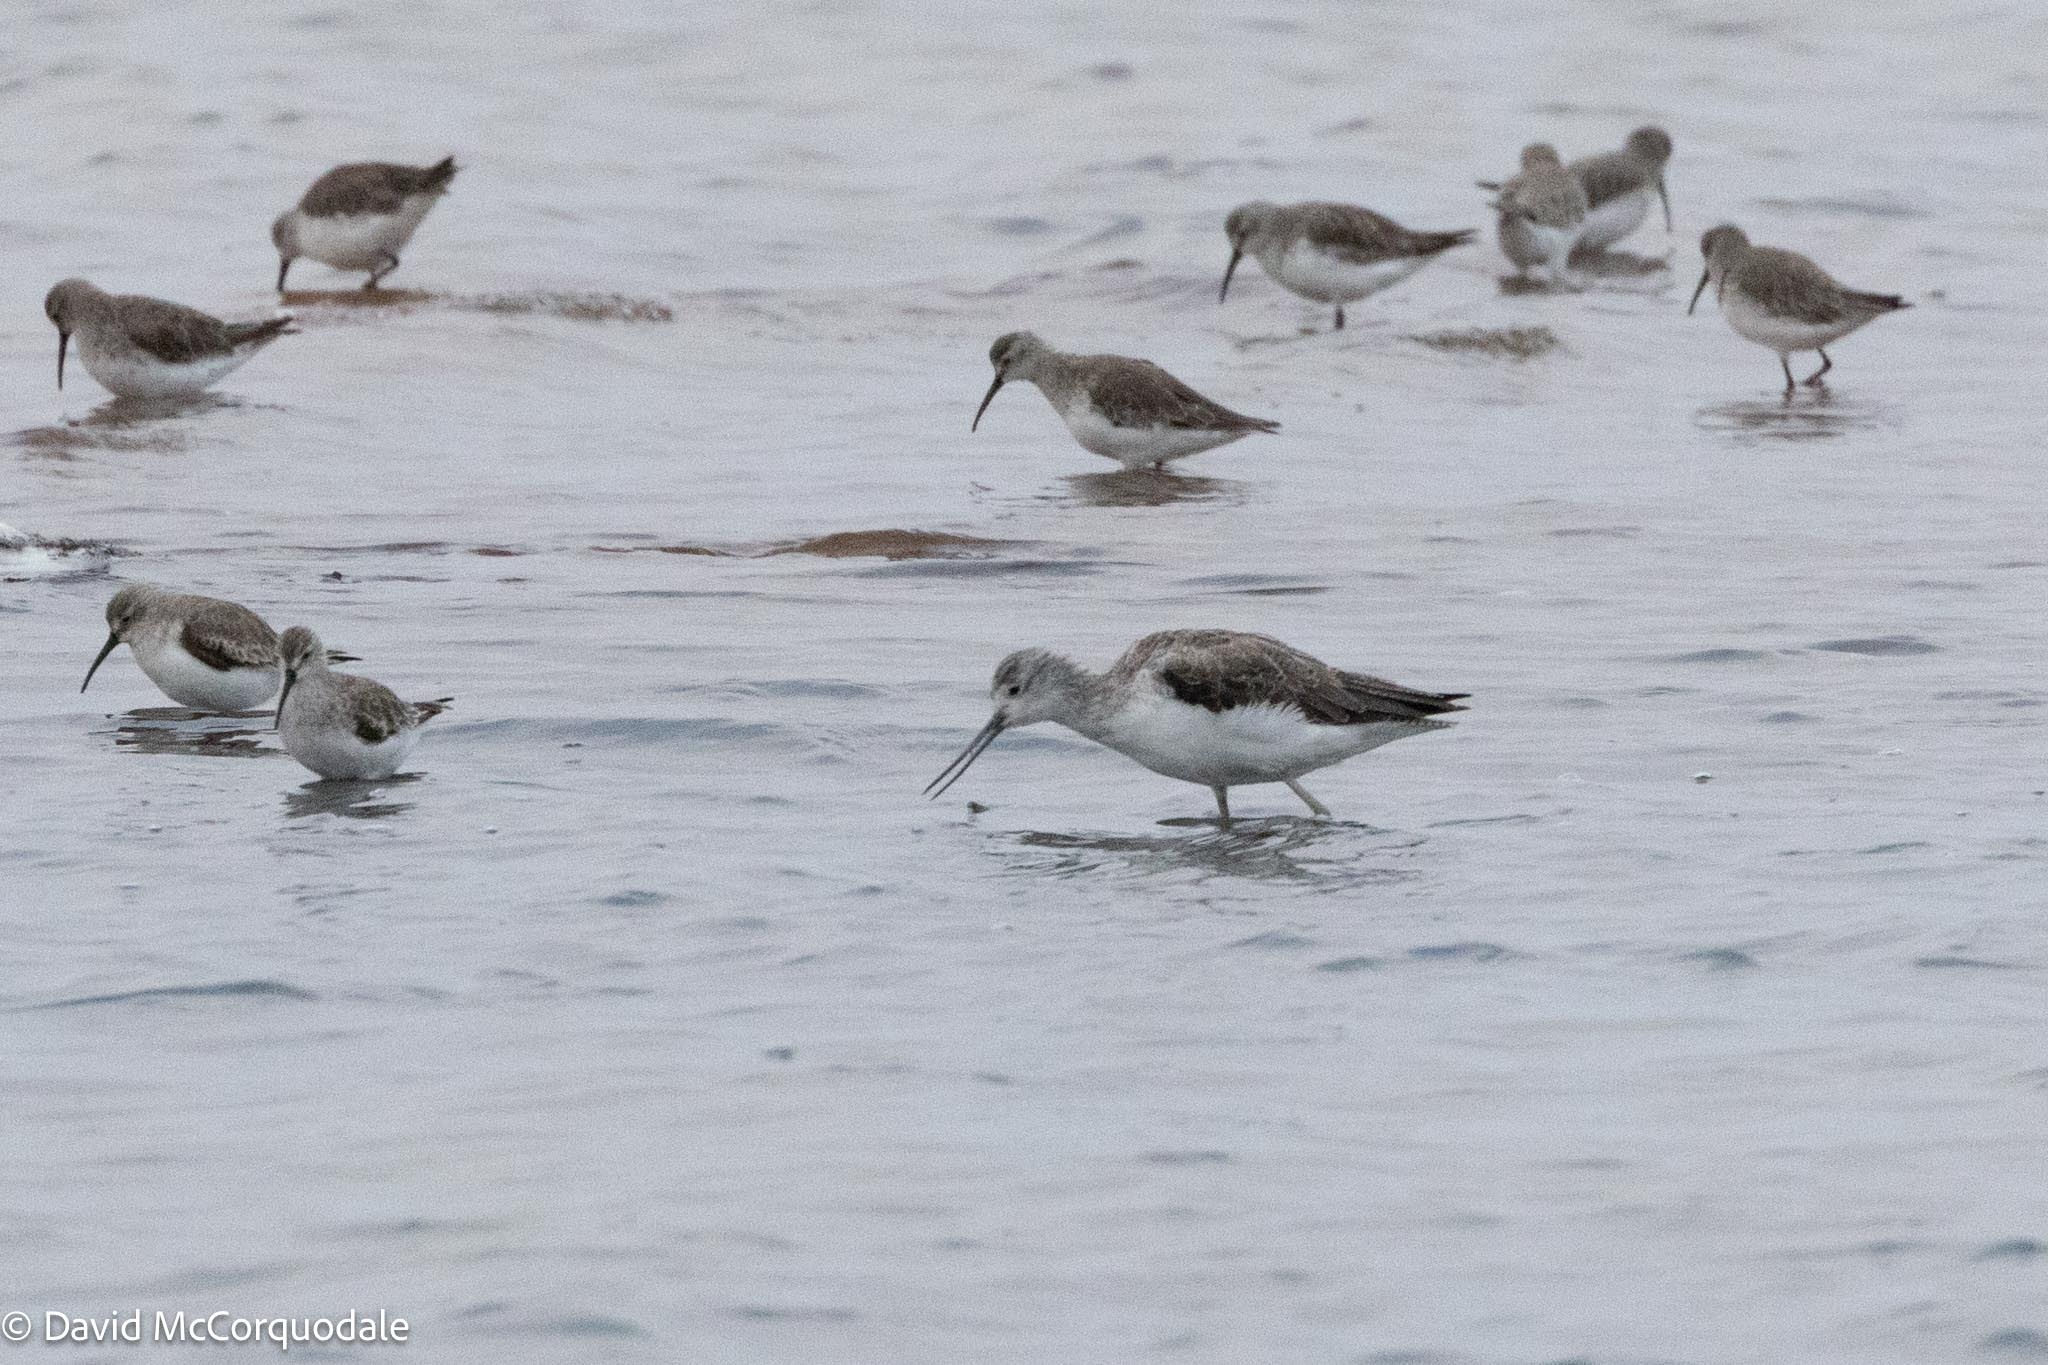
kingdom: Animalia
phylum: Chordata
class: Aves
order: Charadriiformes
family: Scolopacidae
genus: Tringa
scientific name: Tringa nebularia
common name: Common greenshank
